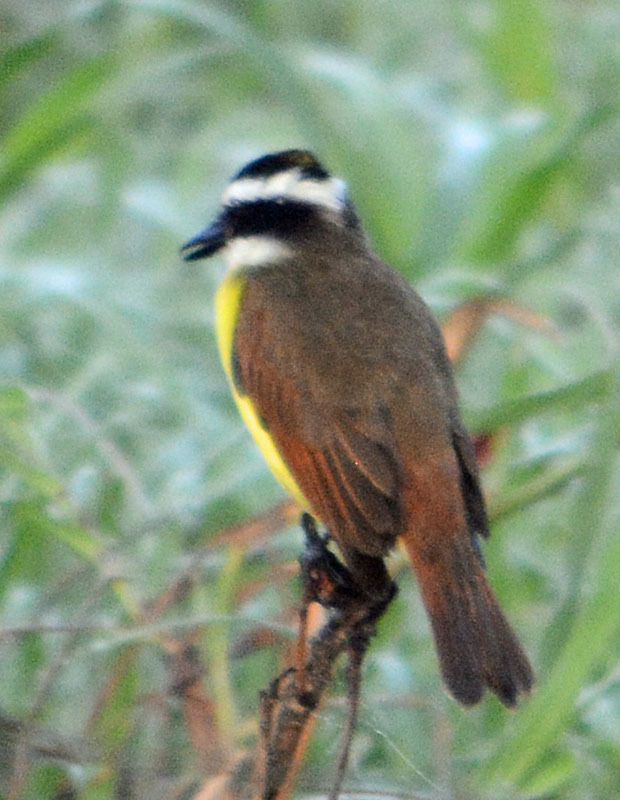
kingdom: Animalia
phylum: Chordata
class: Aves
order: Passeriformes
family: Tyrannidae
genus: Pitangus
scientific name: Pitangus sulphuratus
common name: Great kiskadee
